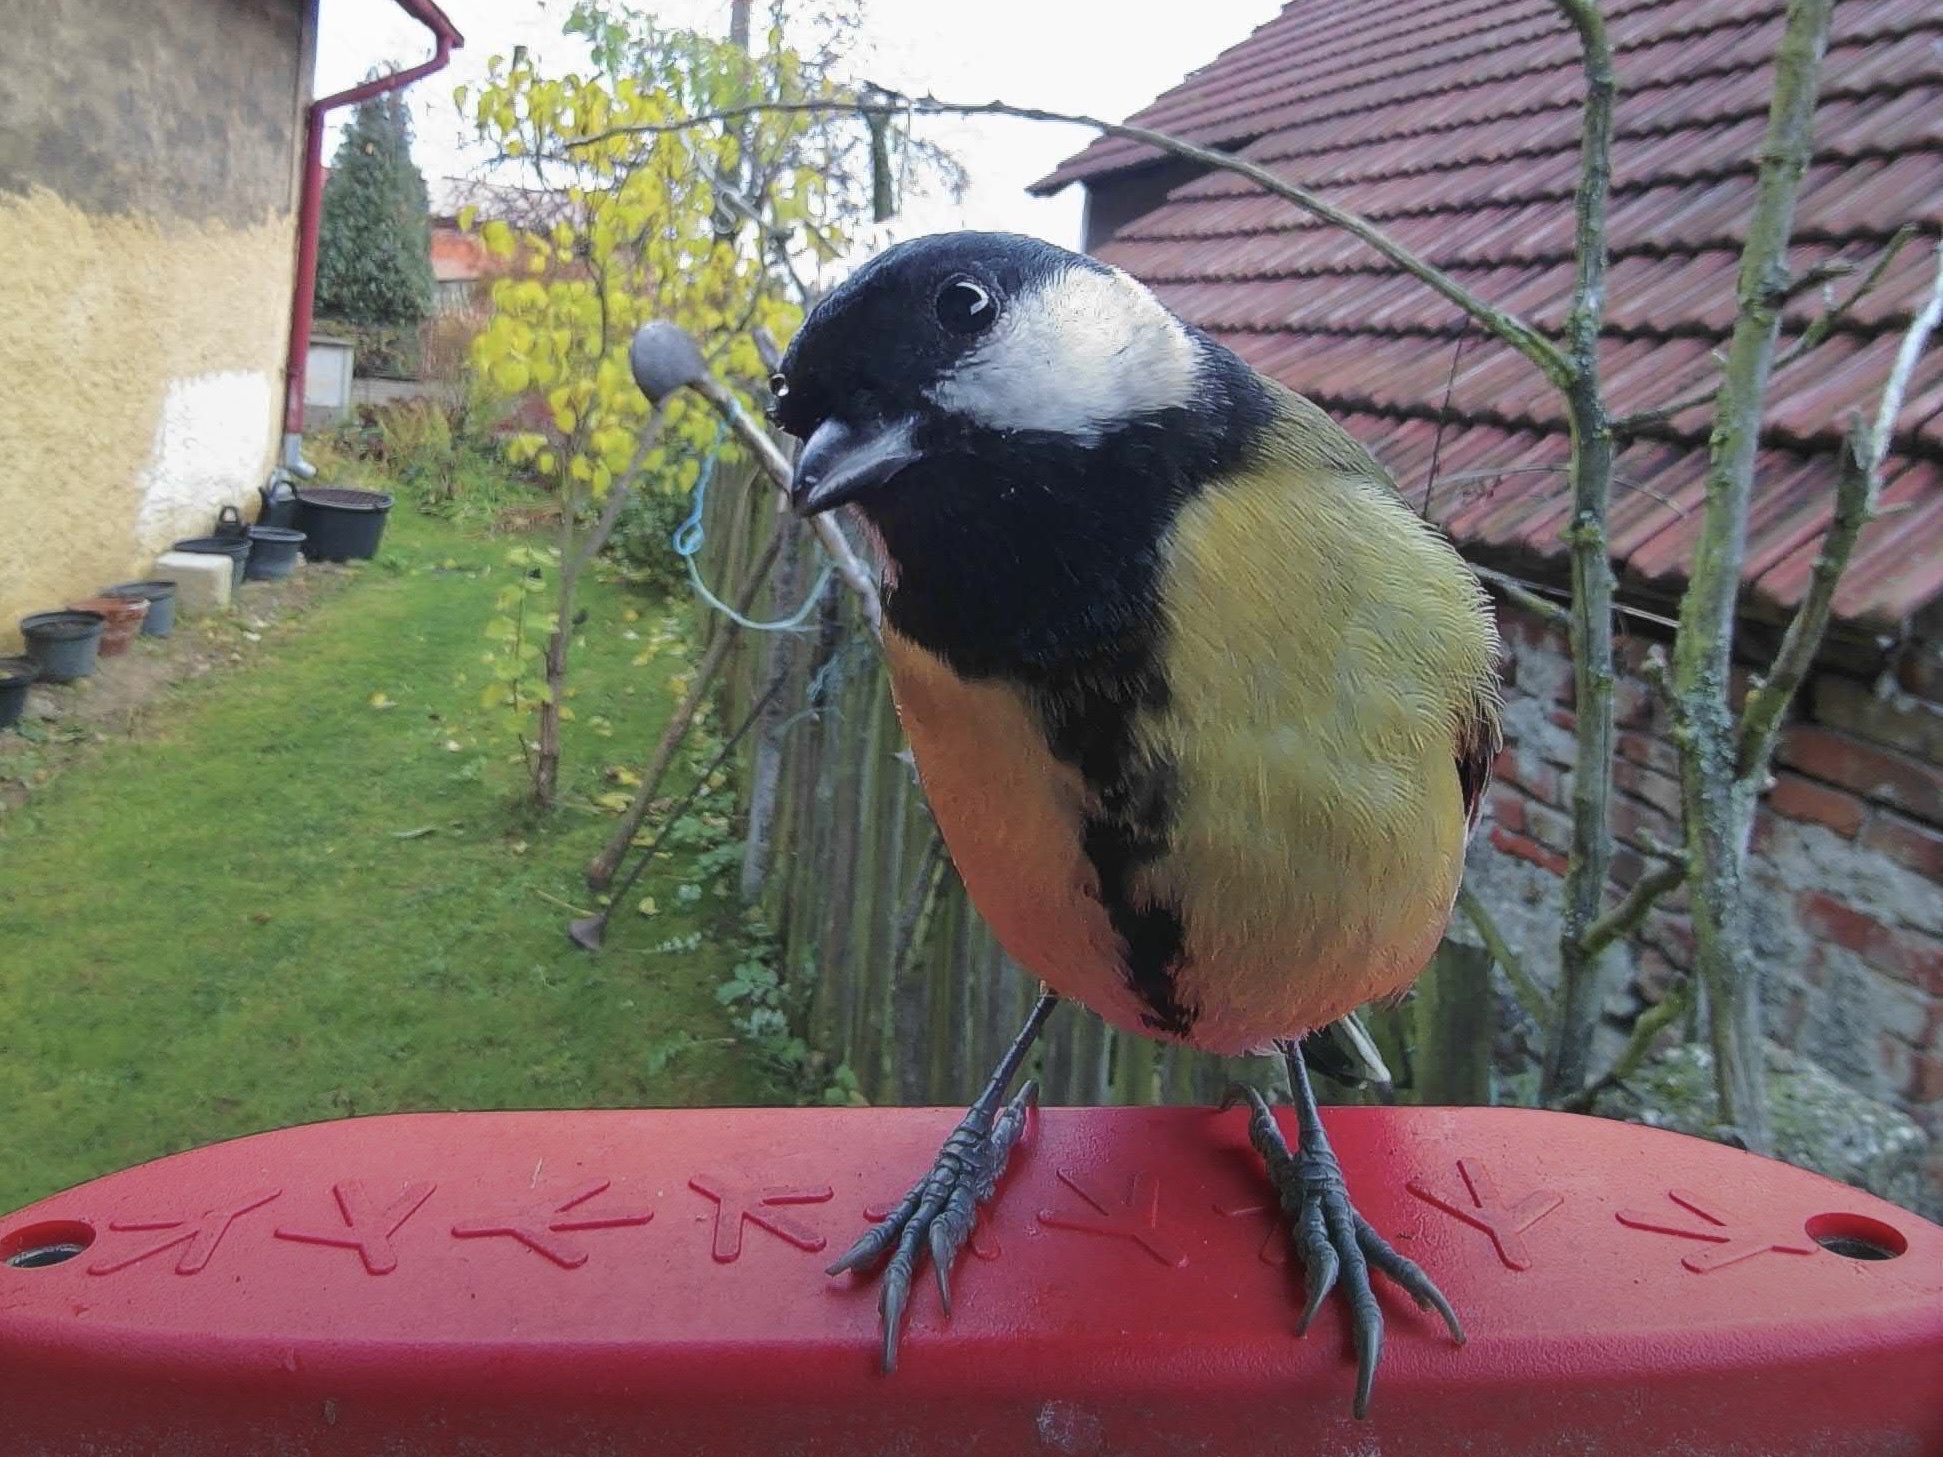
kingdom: Animalia
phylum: Chordata
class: Aves
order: Passeriformes
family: Paridae
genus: Parus
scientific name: Parus major
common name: Great tit
